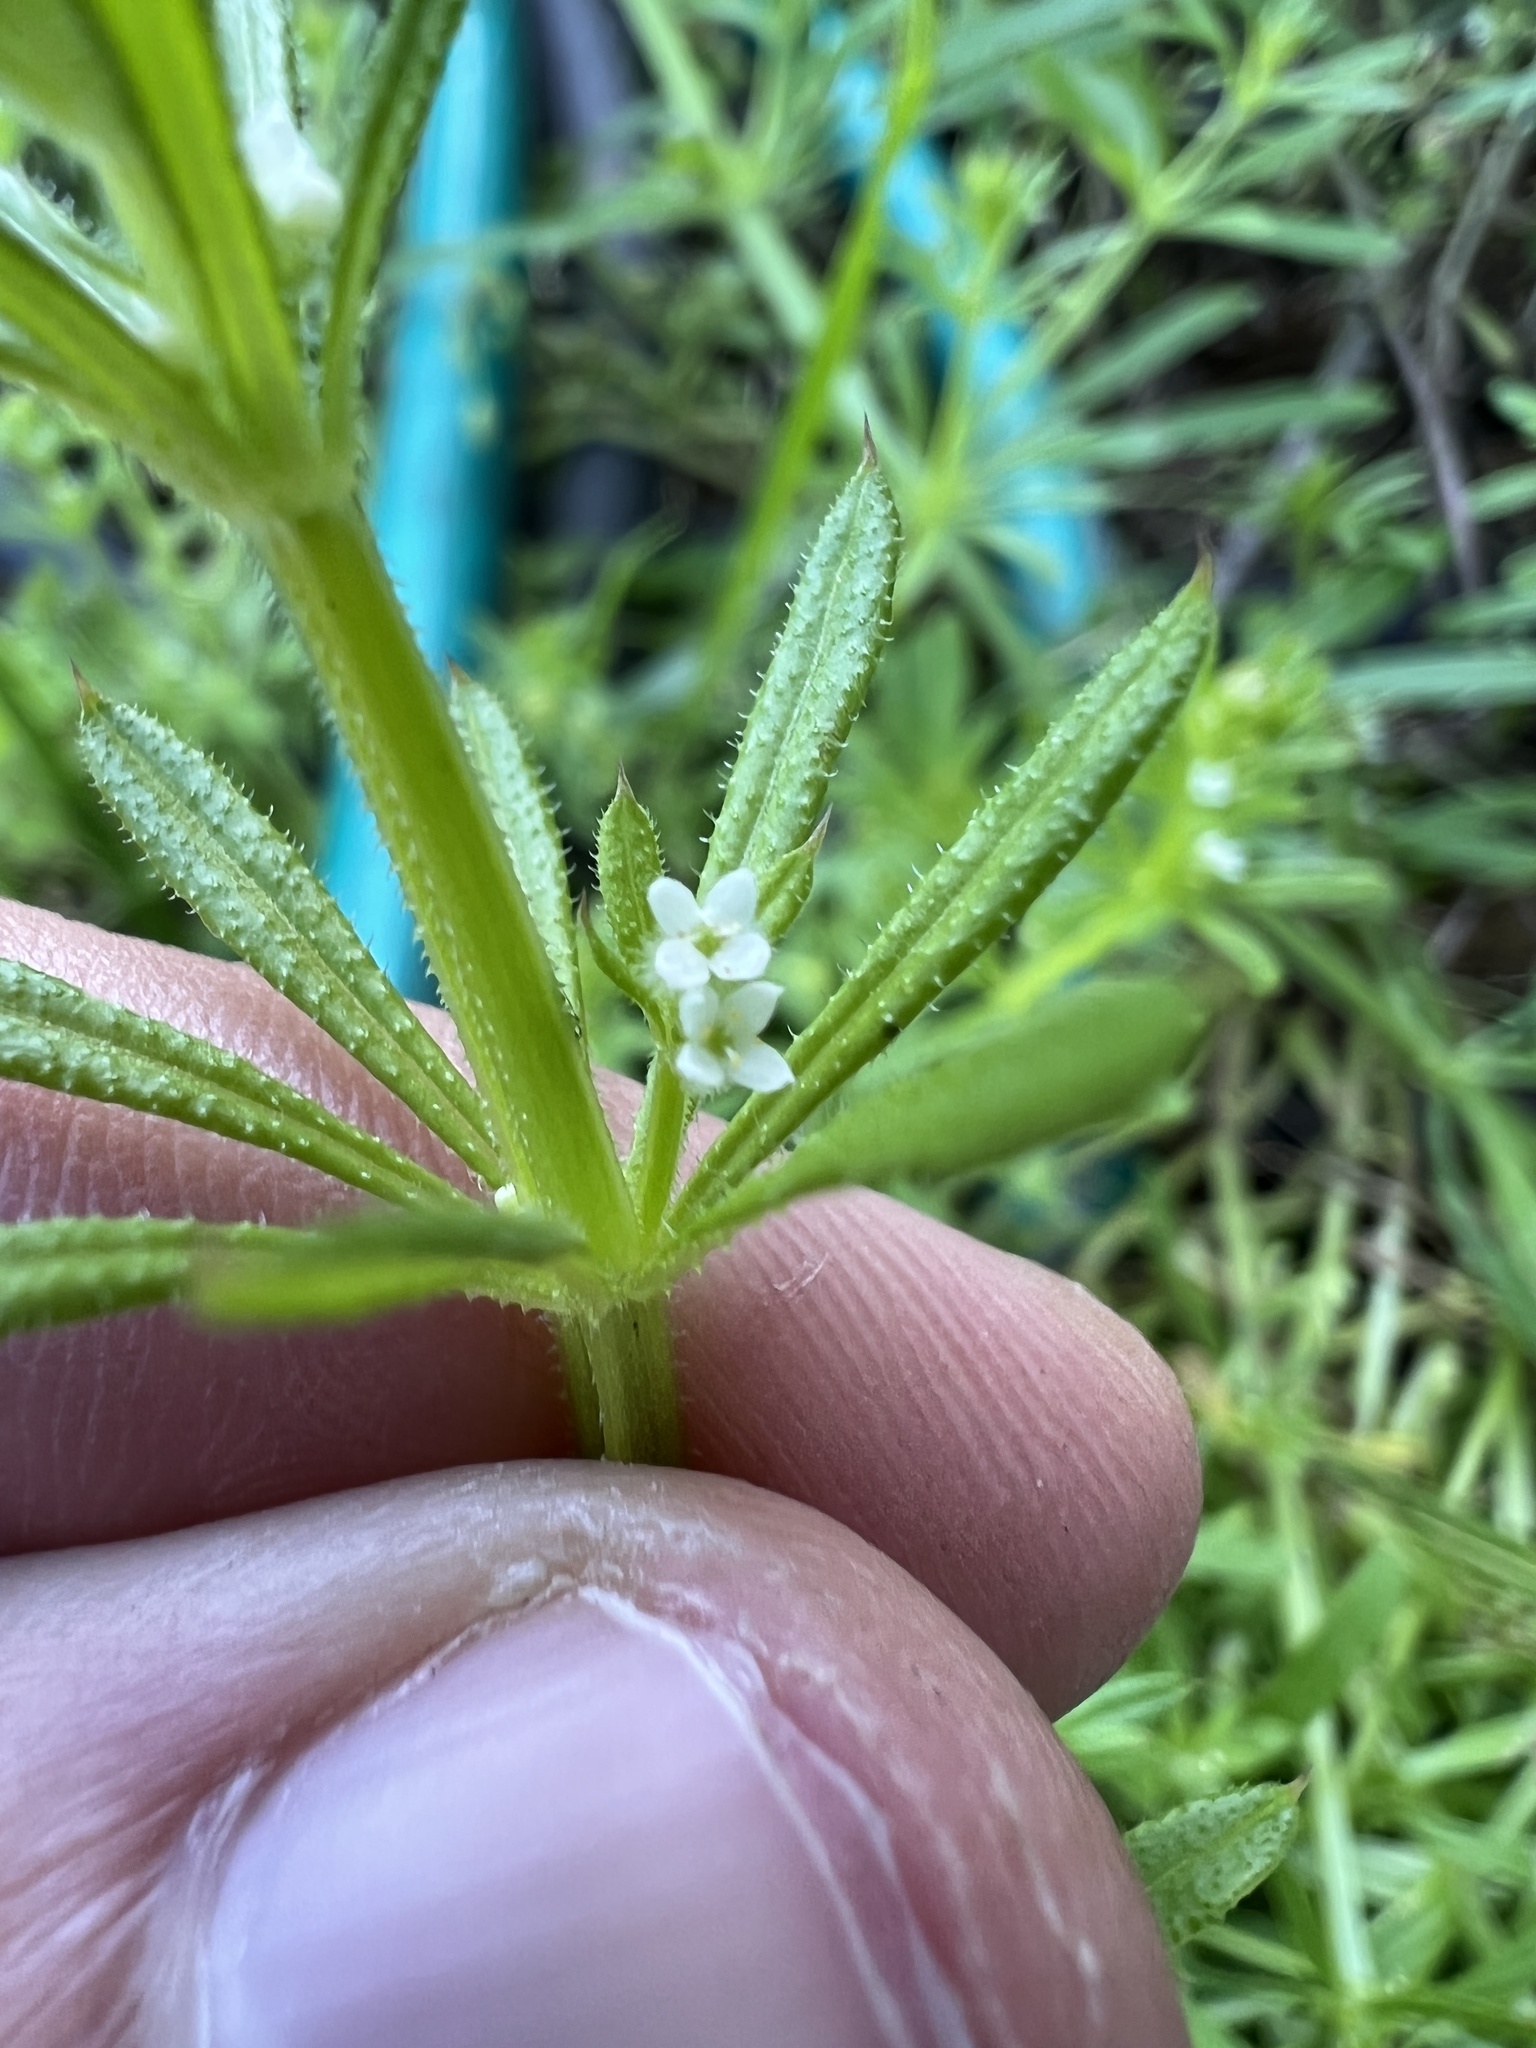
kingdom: Plantae
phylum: Tracheophyta
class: Magnoliopsida
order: Gentianales
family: Rubiaceae
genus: Galium
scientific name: Galium aparine
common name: Cleavers
